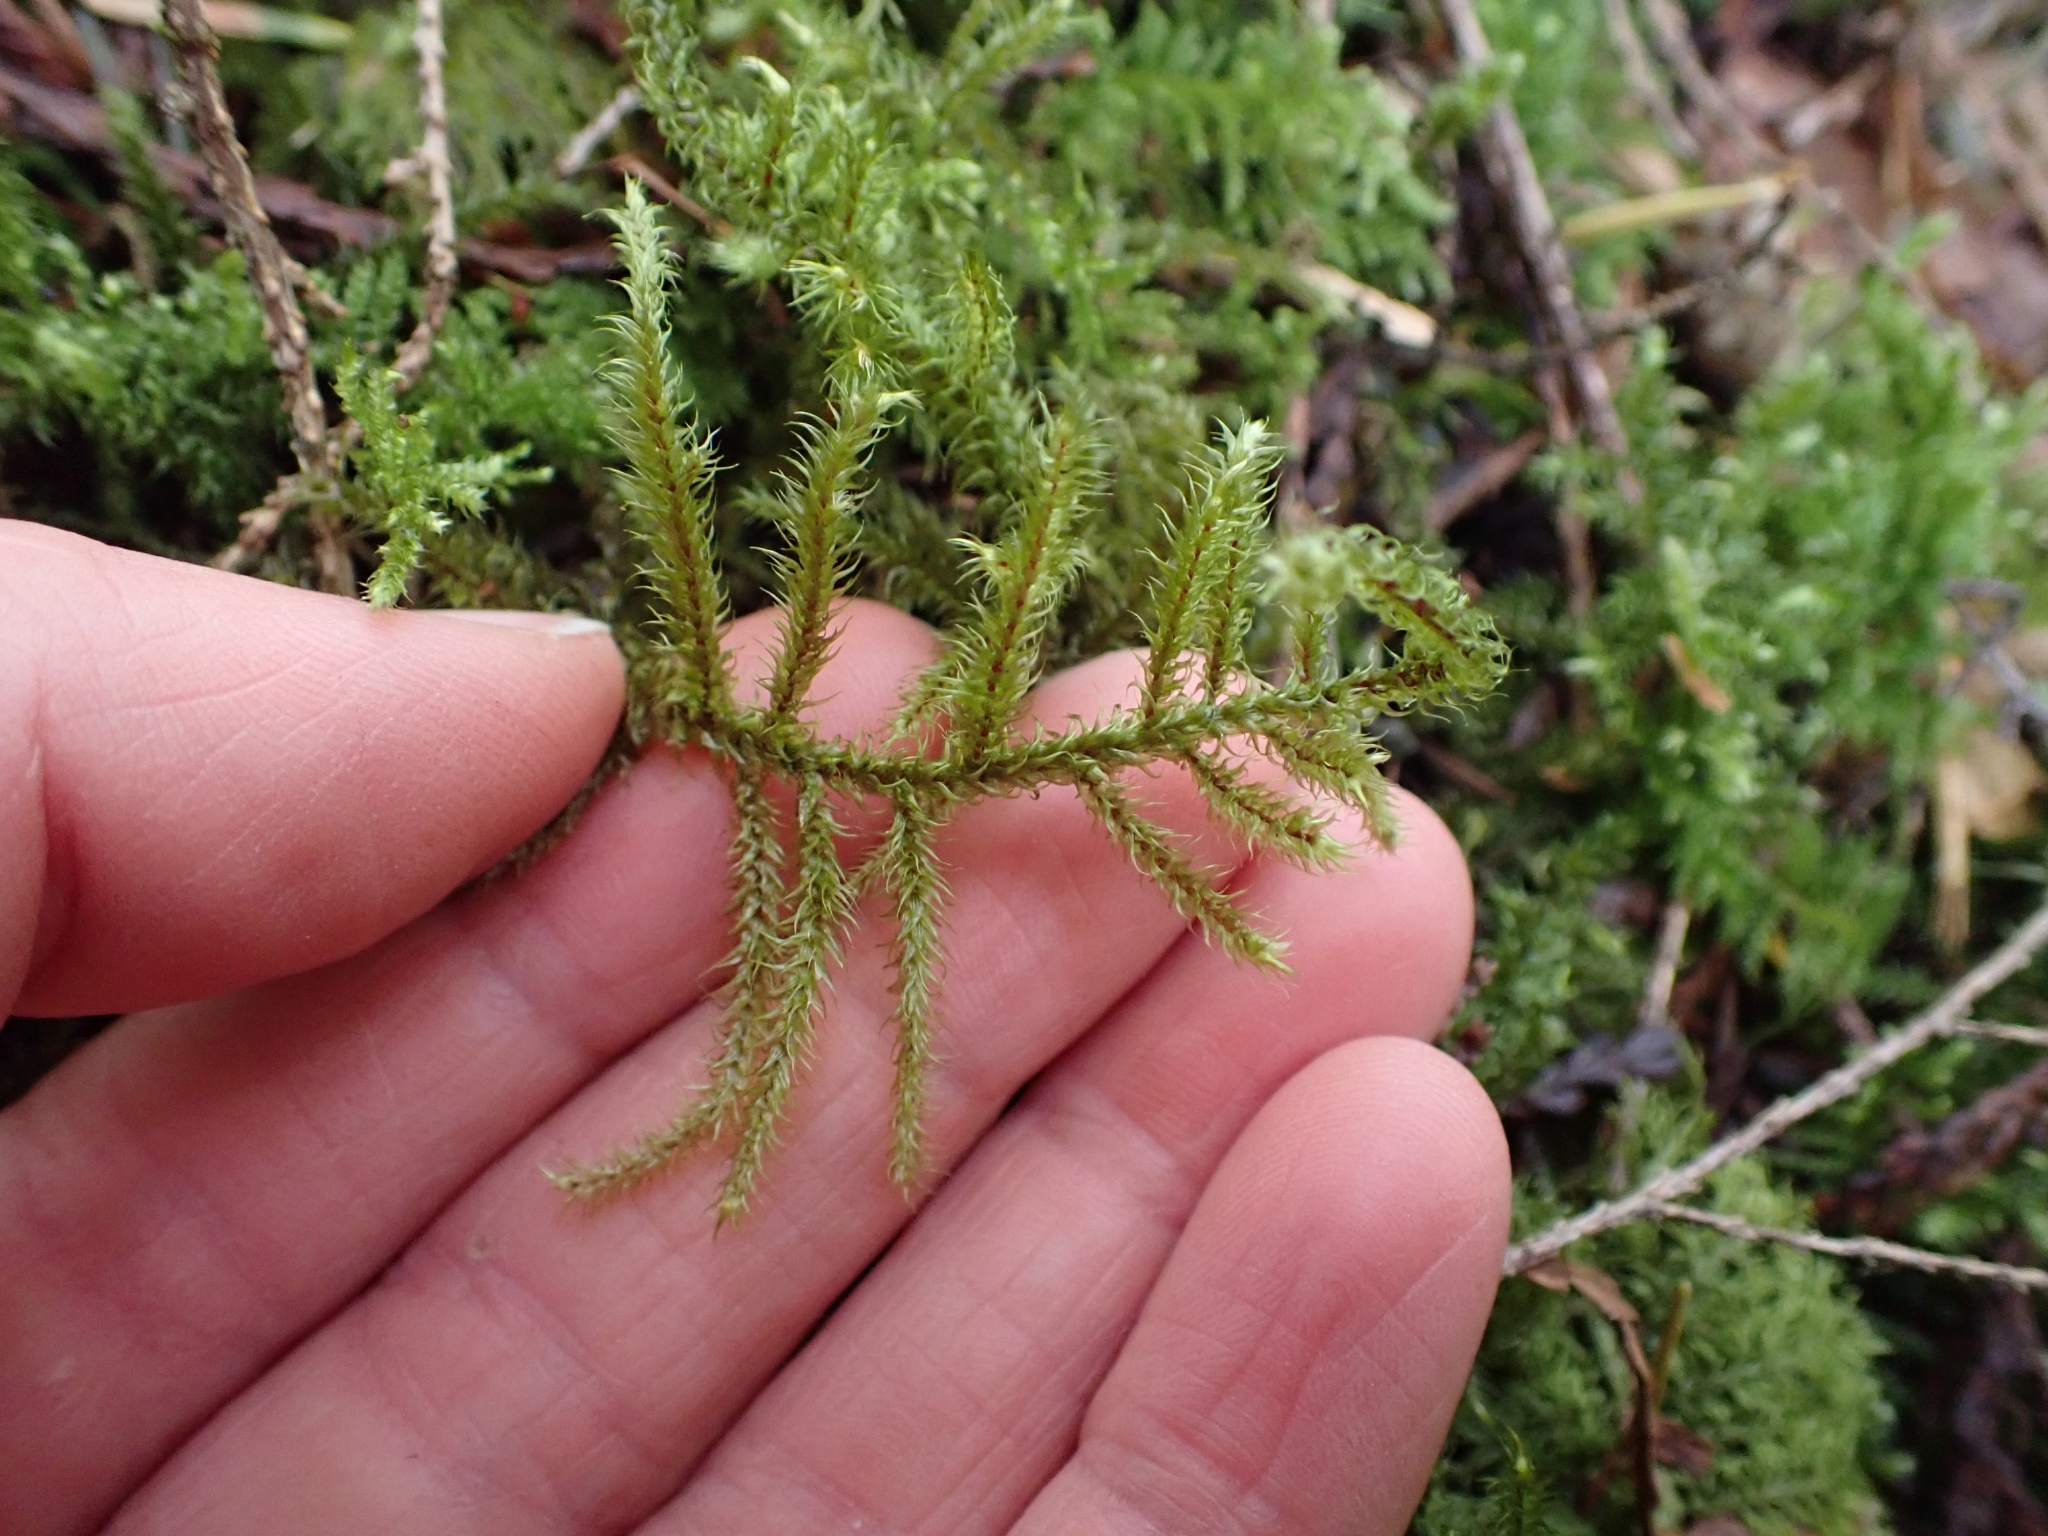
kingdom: Plantae
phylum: Bryophyta
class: Bryopsida
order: Hypnales
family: Hylocomiaceae
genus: Rhytidiadelphus
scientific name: Rhytidiadelphus loreus
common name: Lanky moss
